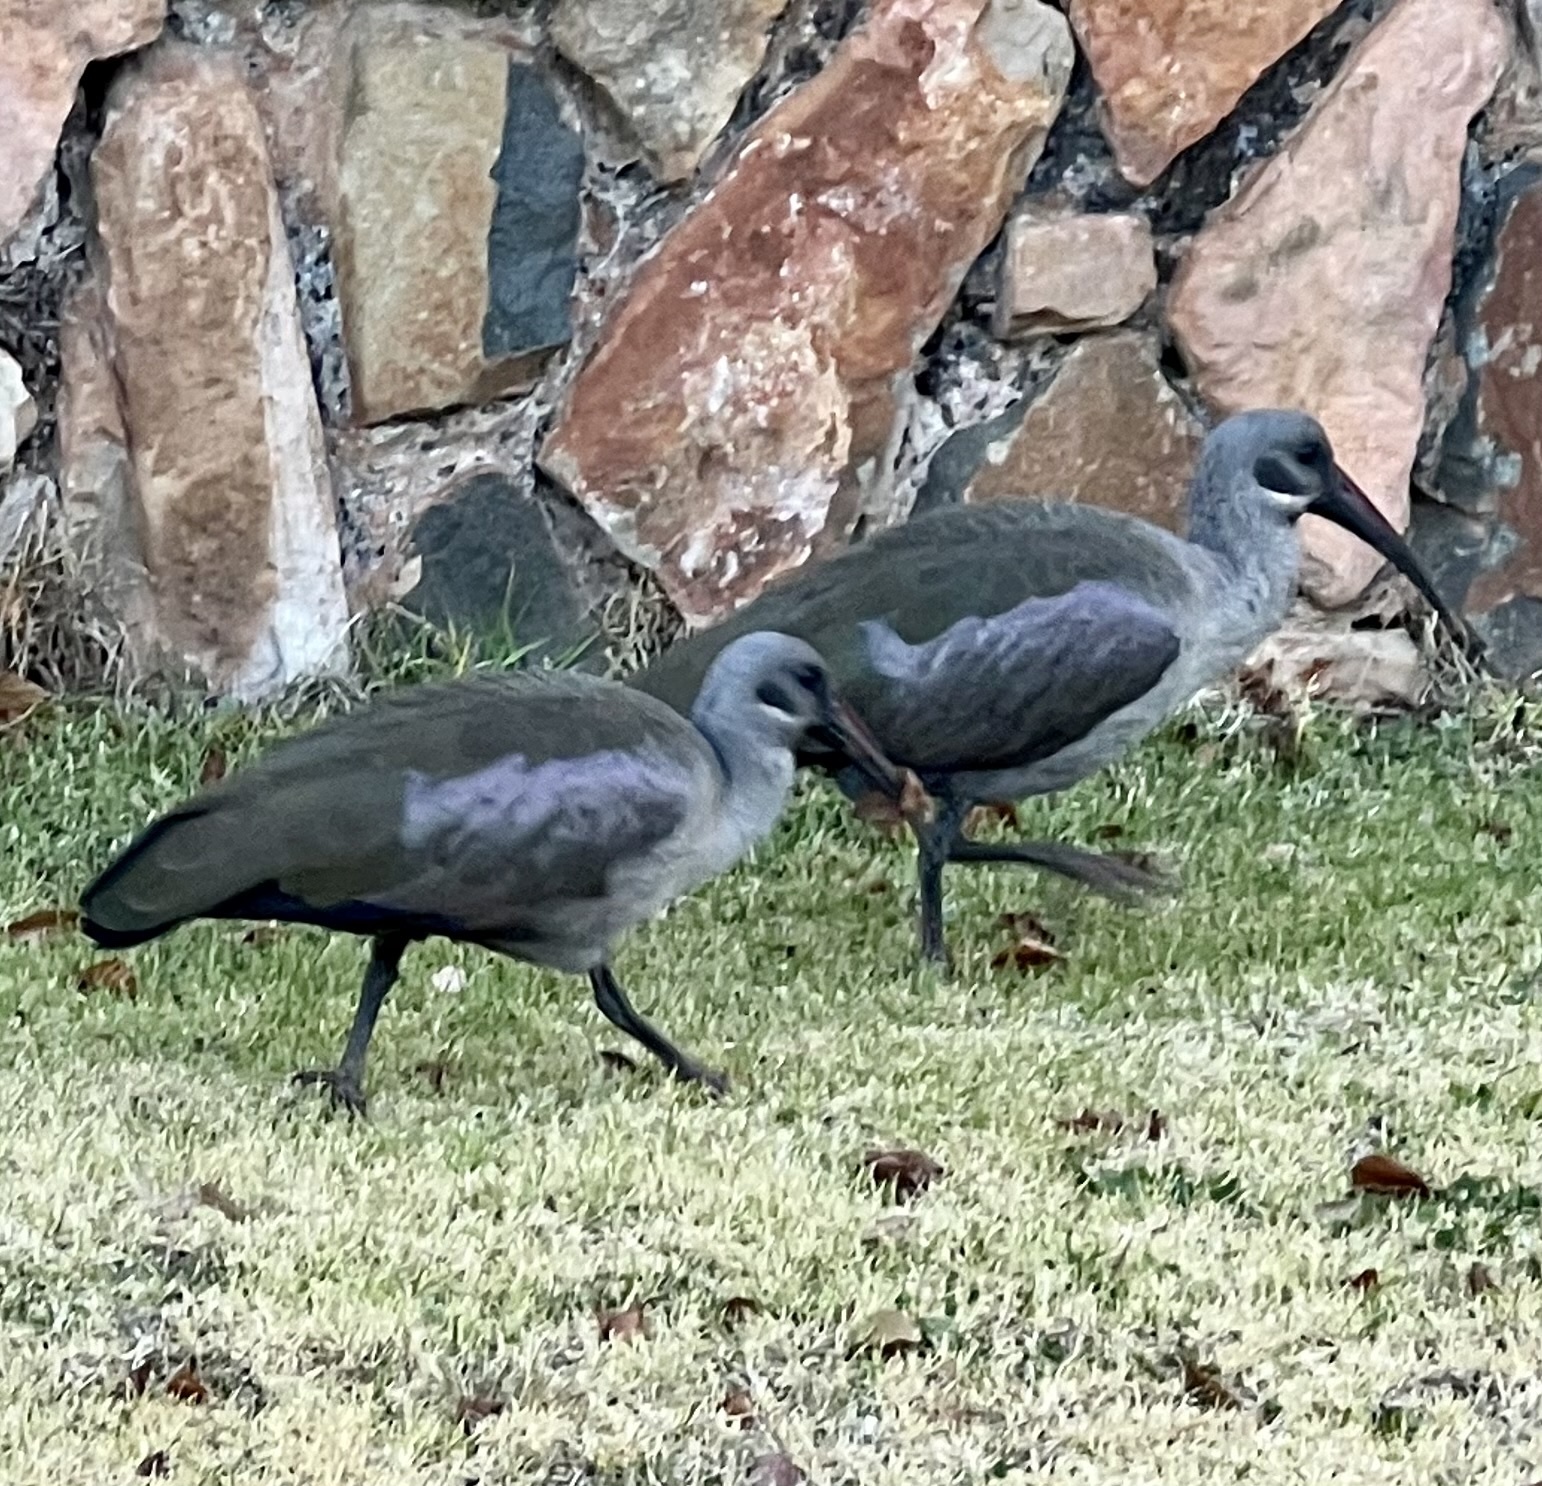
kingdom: Animalia
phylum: Chordata
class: Aves
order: Pelecaniformes
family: Threskiornithidae
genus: Bostrychia
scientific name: Bostrychia hagedash
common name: Hadada ibis
